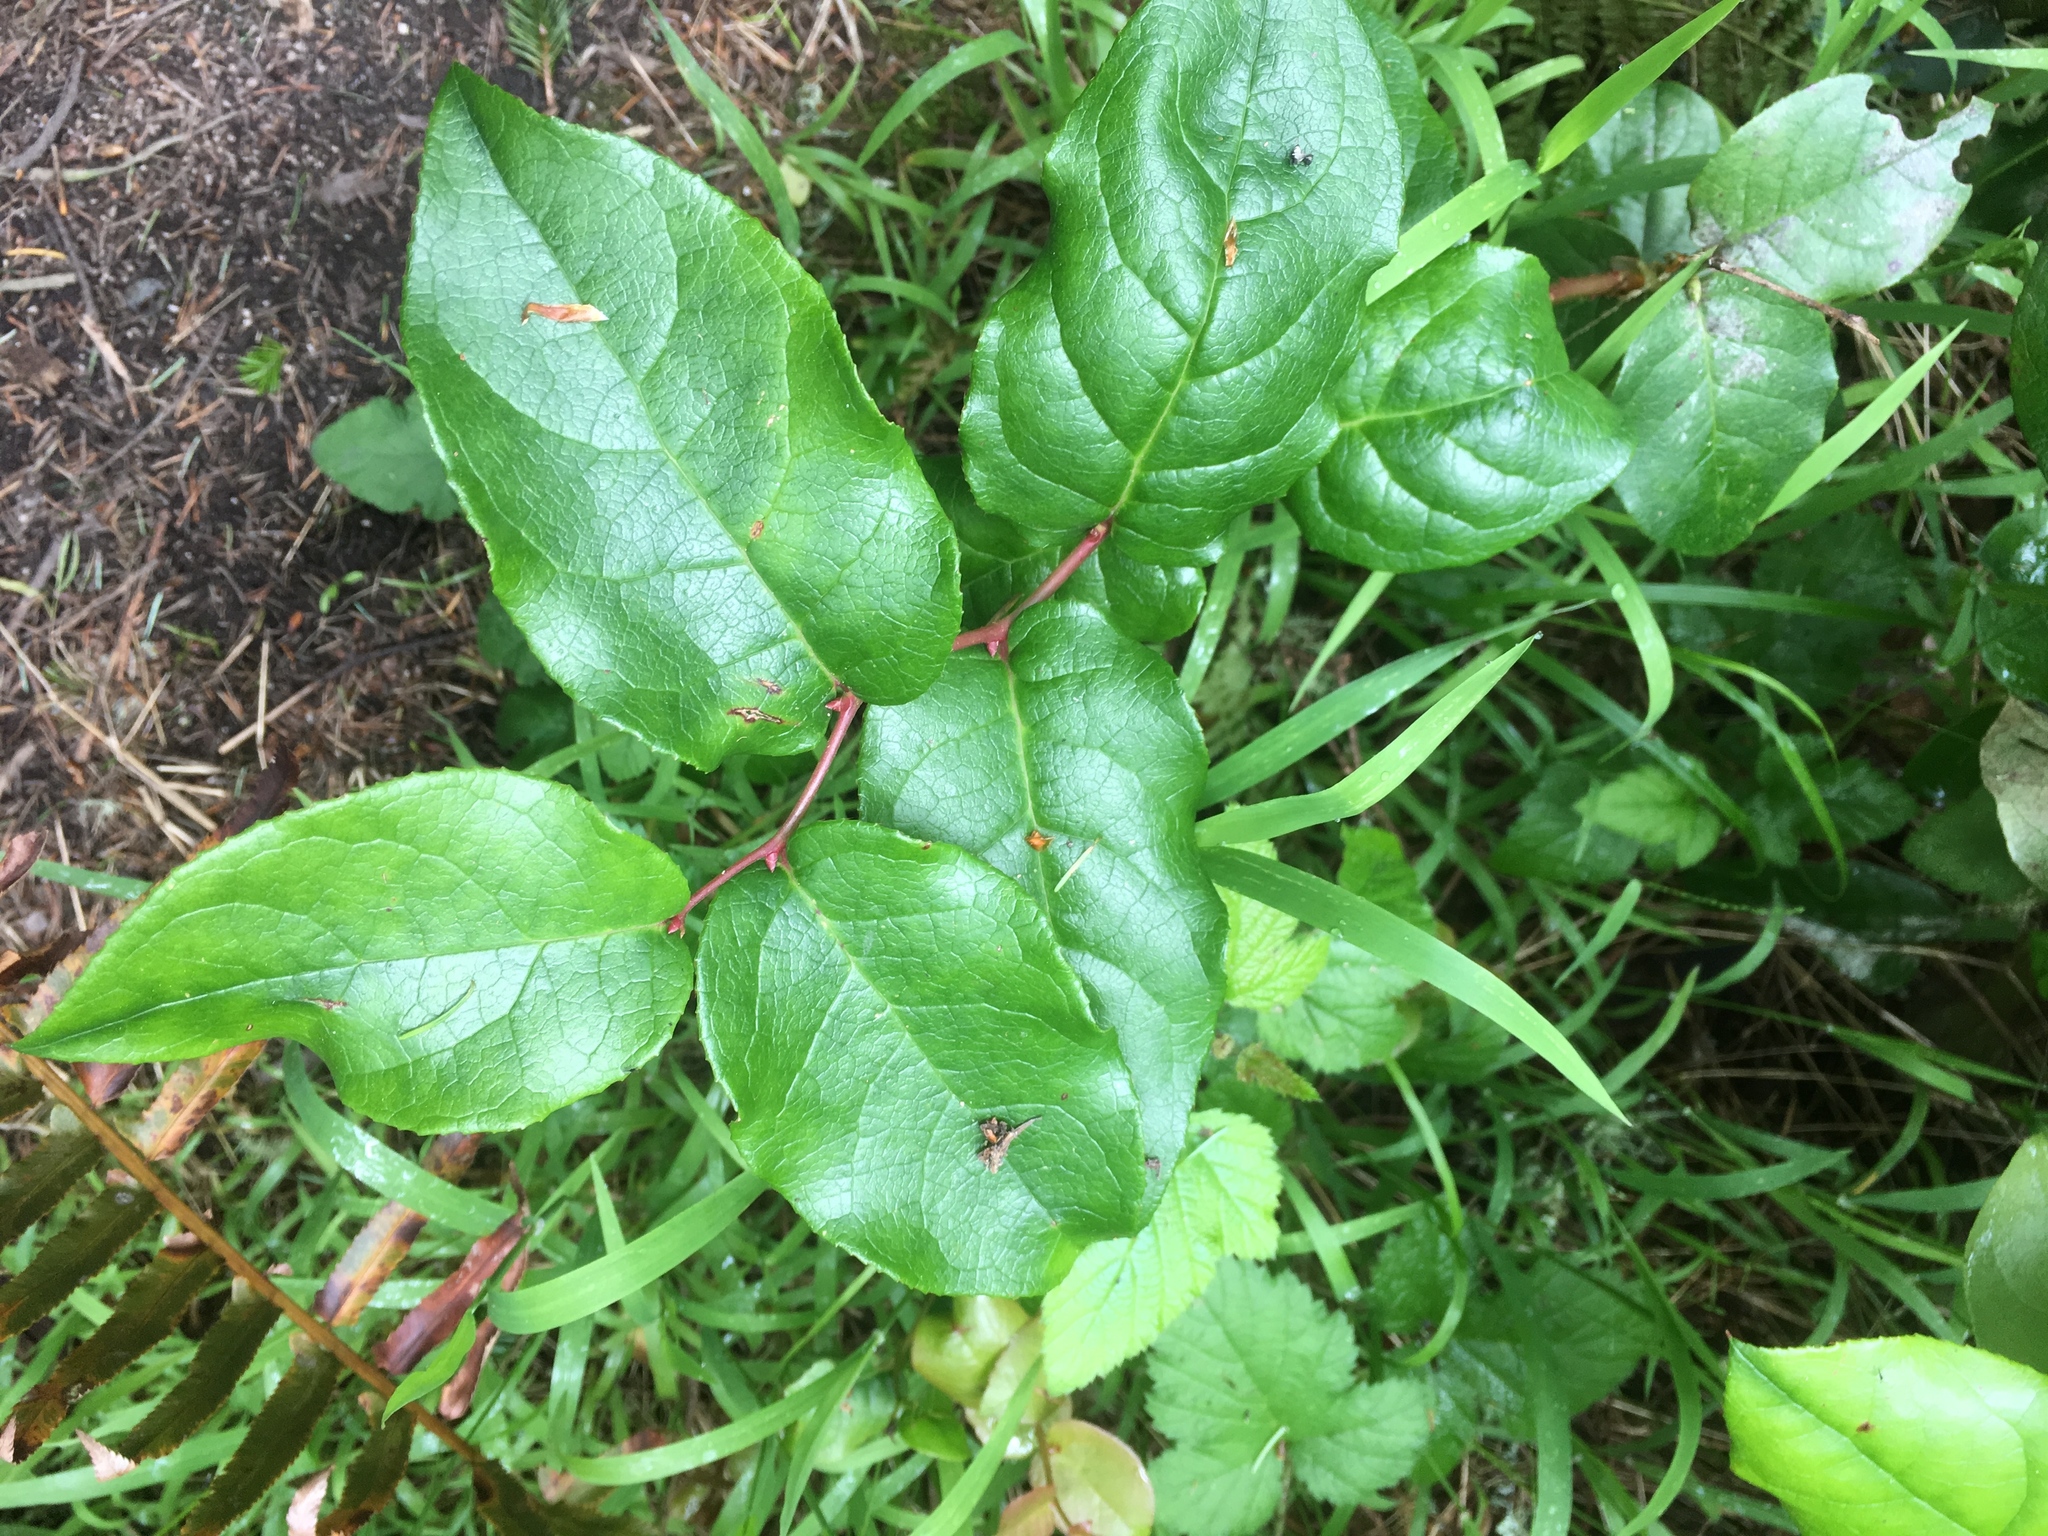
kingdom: Plantae
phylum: Tracheophyta
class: Magnoliopsida
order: Ericales
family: Ericaceae
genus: Gaultheria
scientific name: Gaultheria shallon
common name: Shallon
